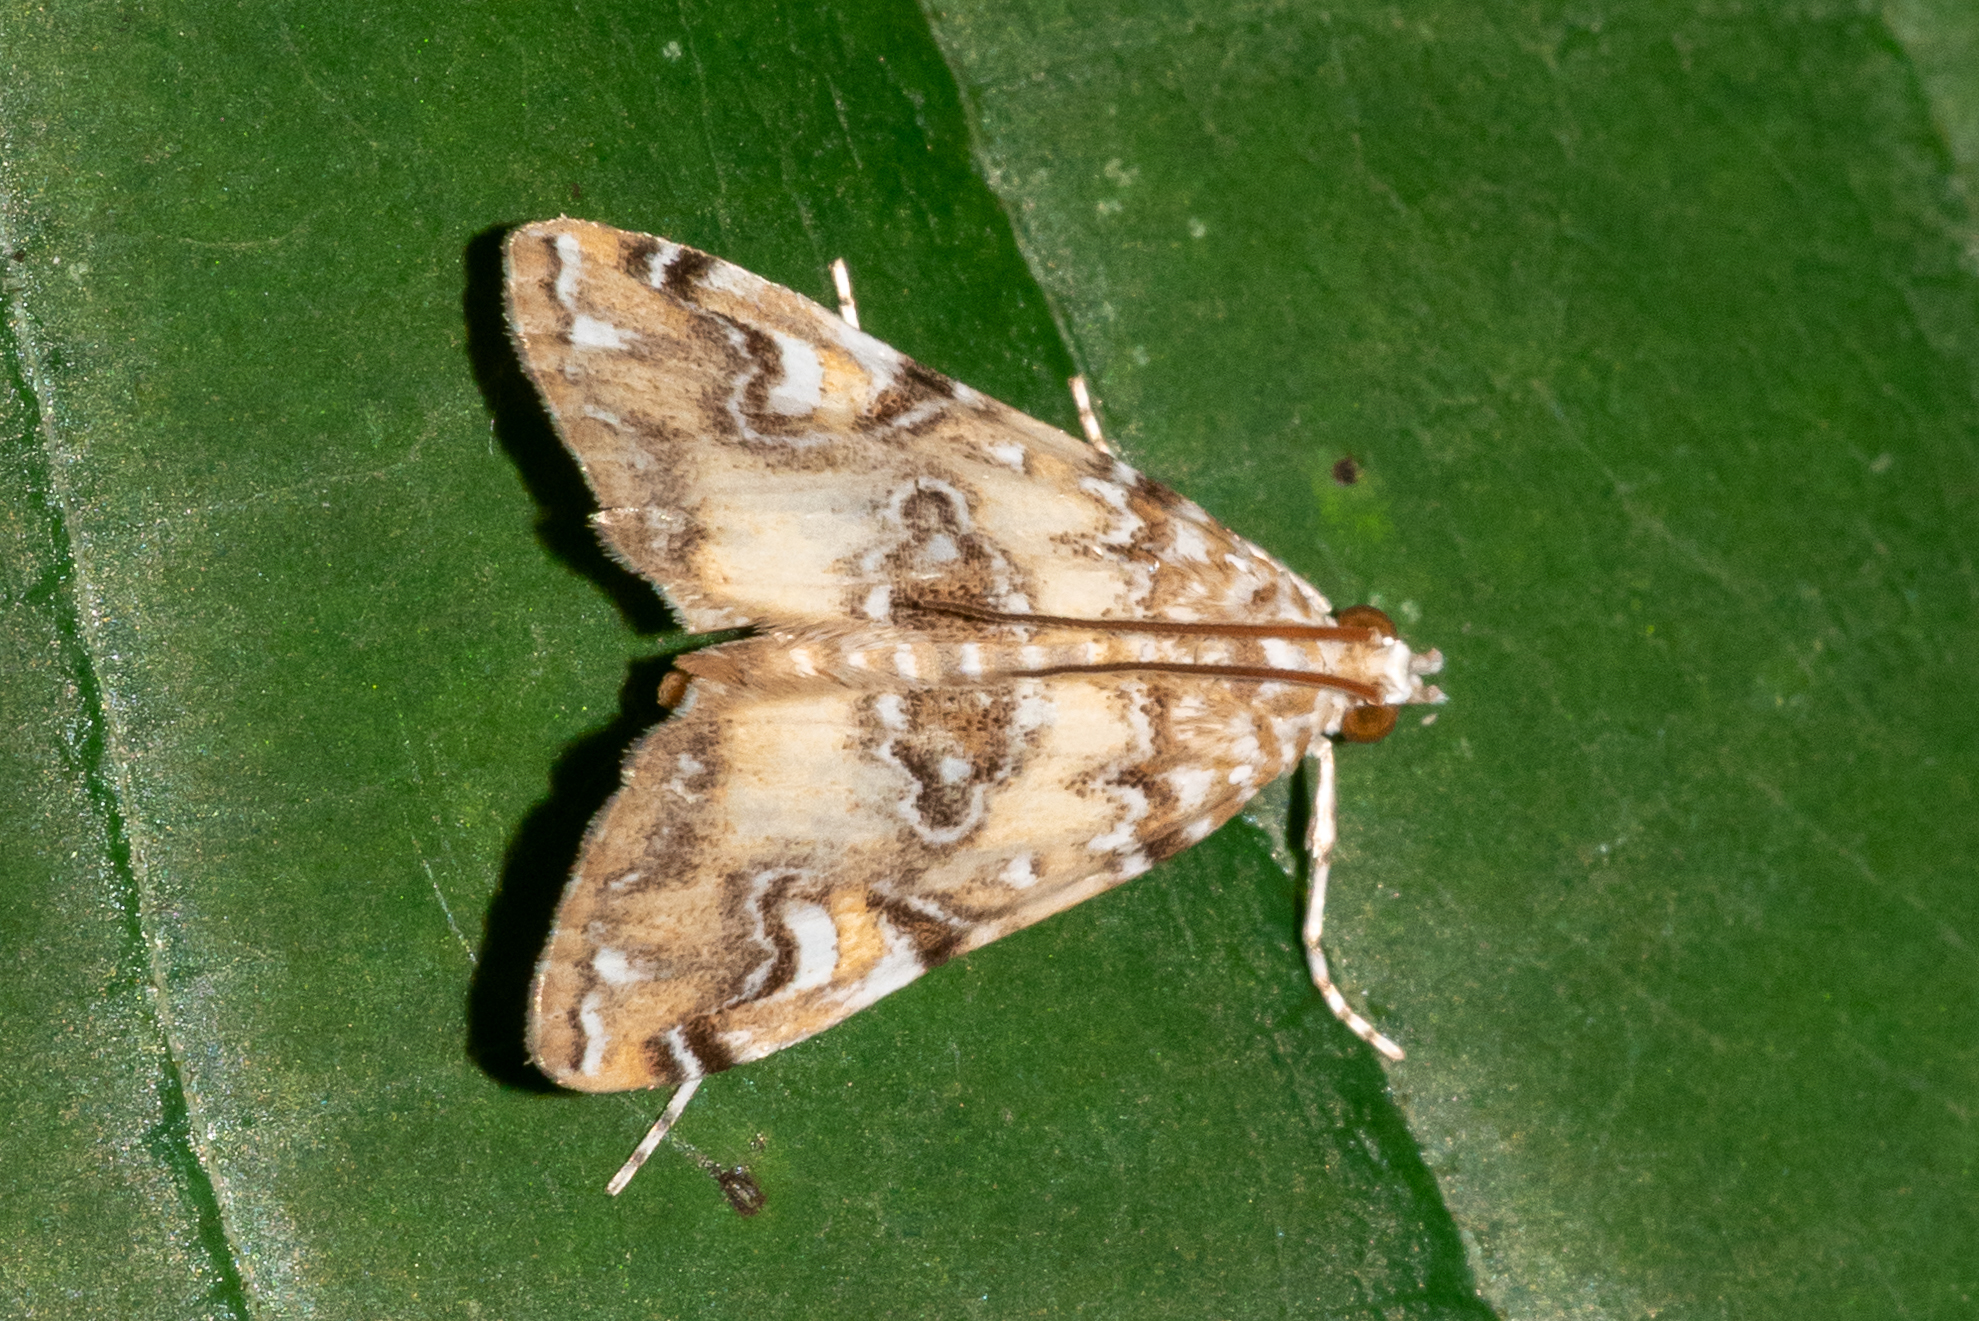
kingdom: Animalia
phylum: Arthropoda
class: Insecta
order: Lepidoptera
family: Crambidae
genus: Elophila
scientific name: Elophila gyralis
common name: Waterlily borer moth
